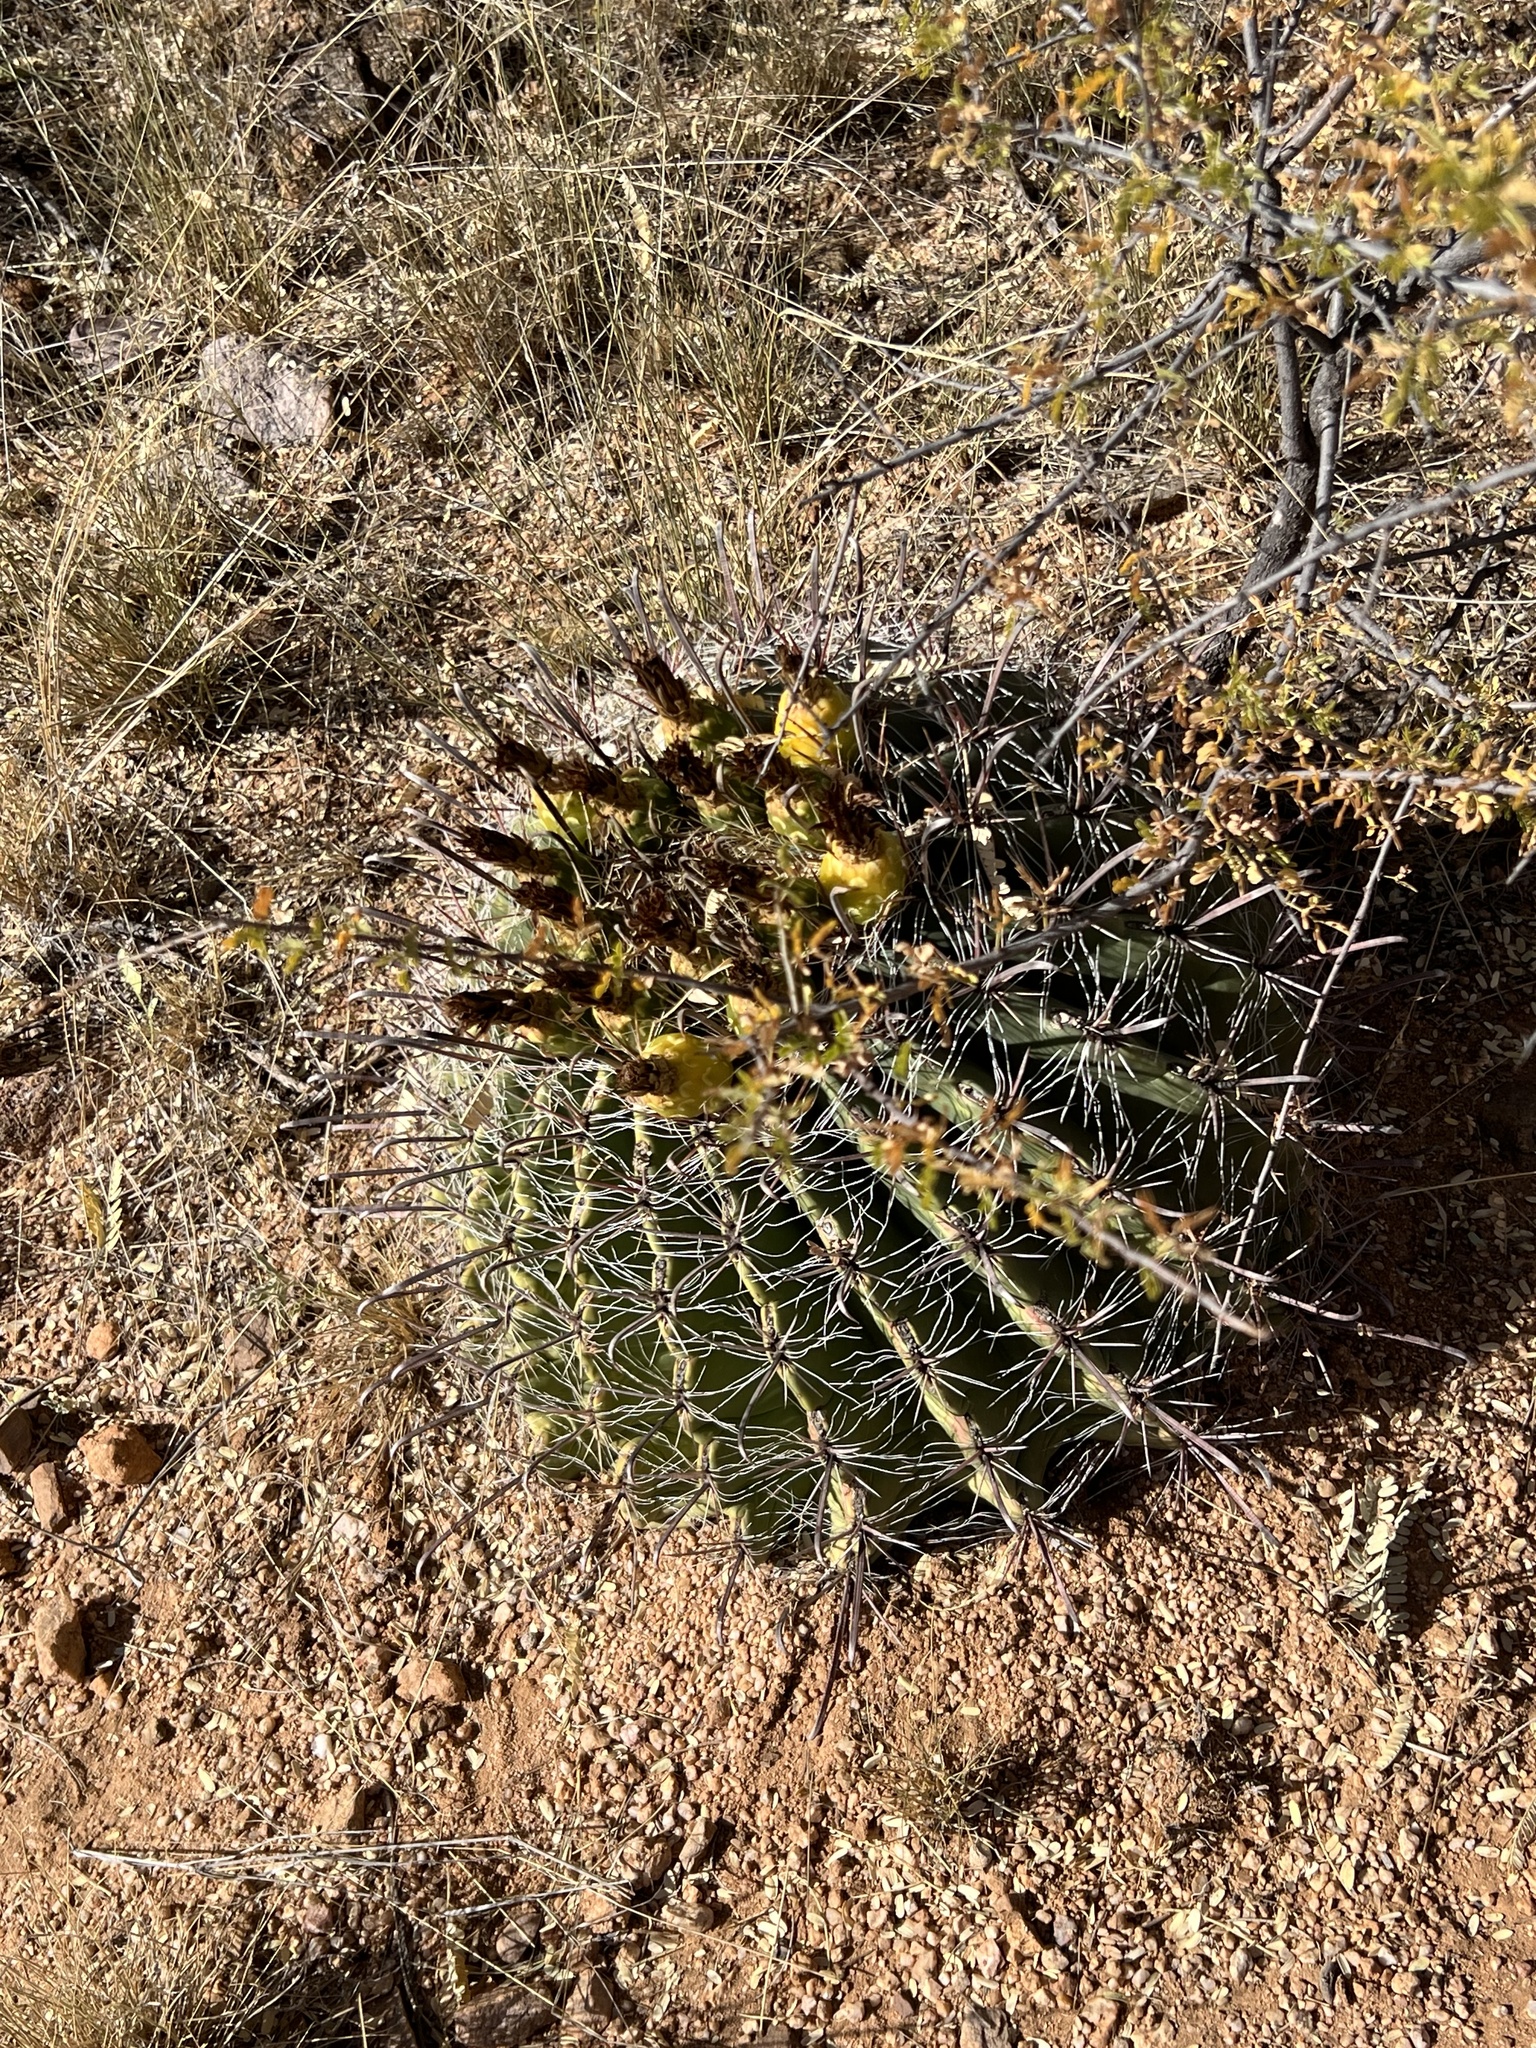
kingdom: Plantae
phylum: Tracheophyta
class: Magnoliopsida
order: Caryophyllales
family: Cactaceae
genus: Ferocactus
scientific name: Ferocactus wislizeni
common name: Candy barrel cactus
